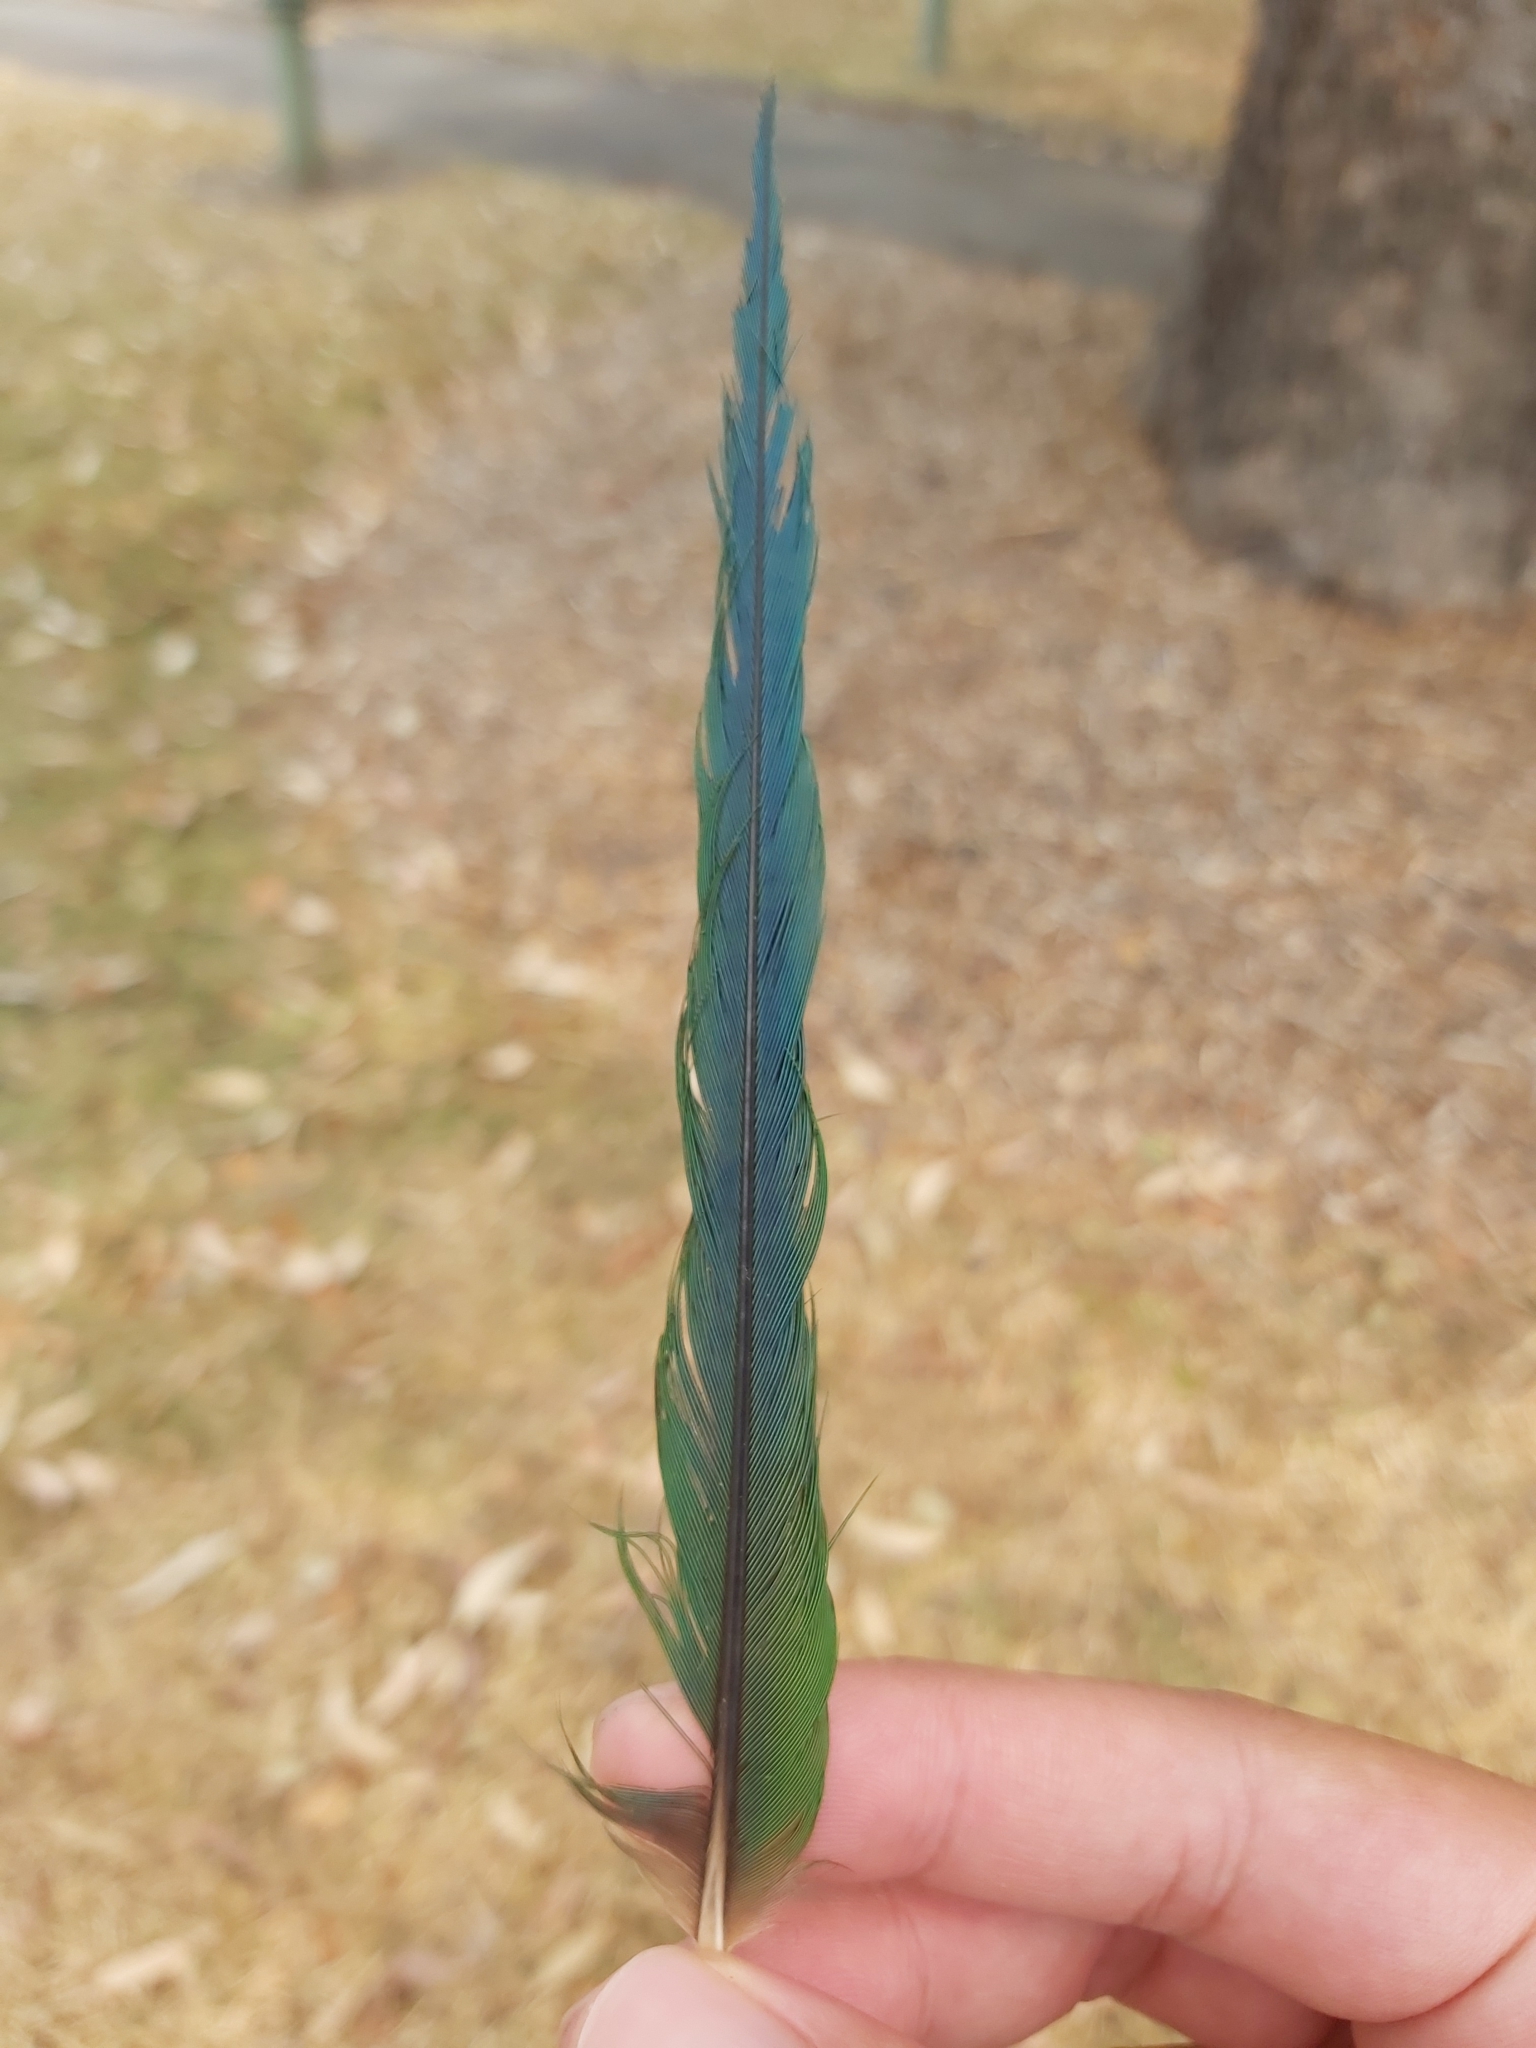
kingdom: Animalia
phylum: Chordata
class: Aves
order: Psittaciformes
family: Psittacidae
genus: Trichoglossus
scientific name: Trichoglossus haematodus
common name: Coconut lorikeet
